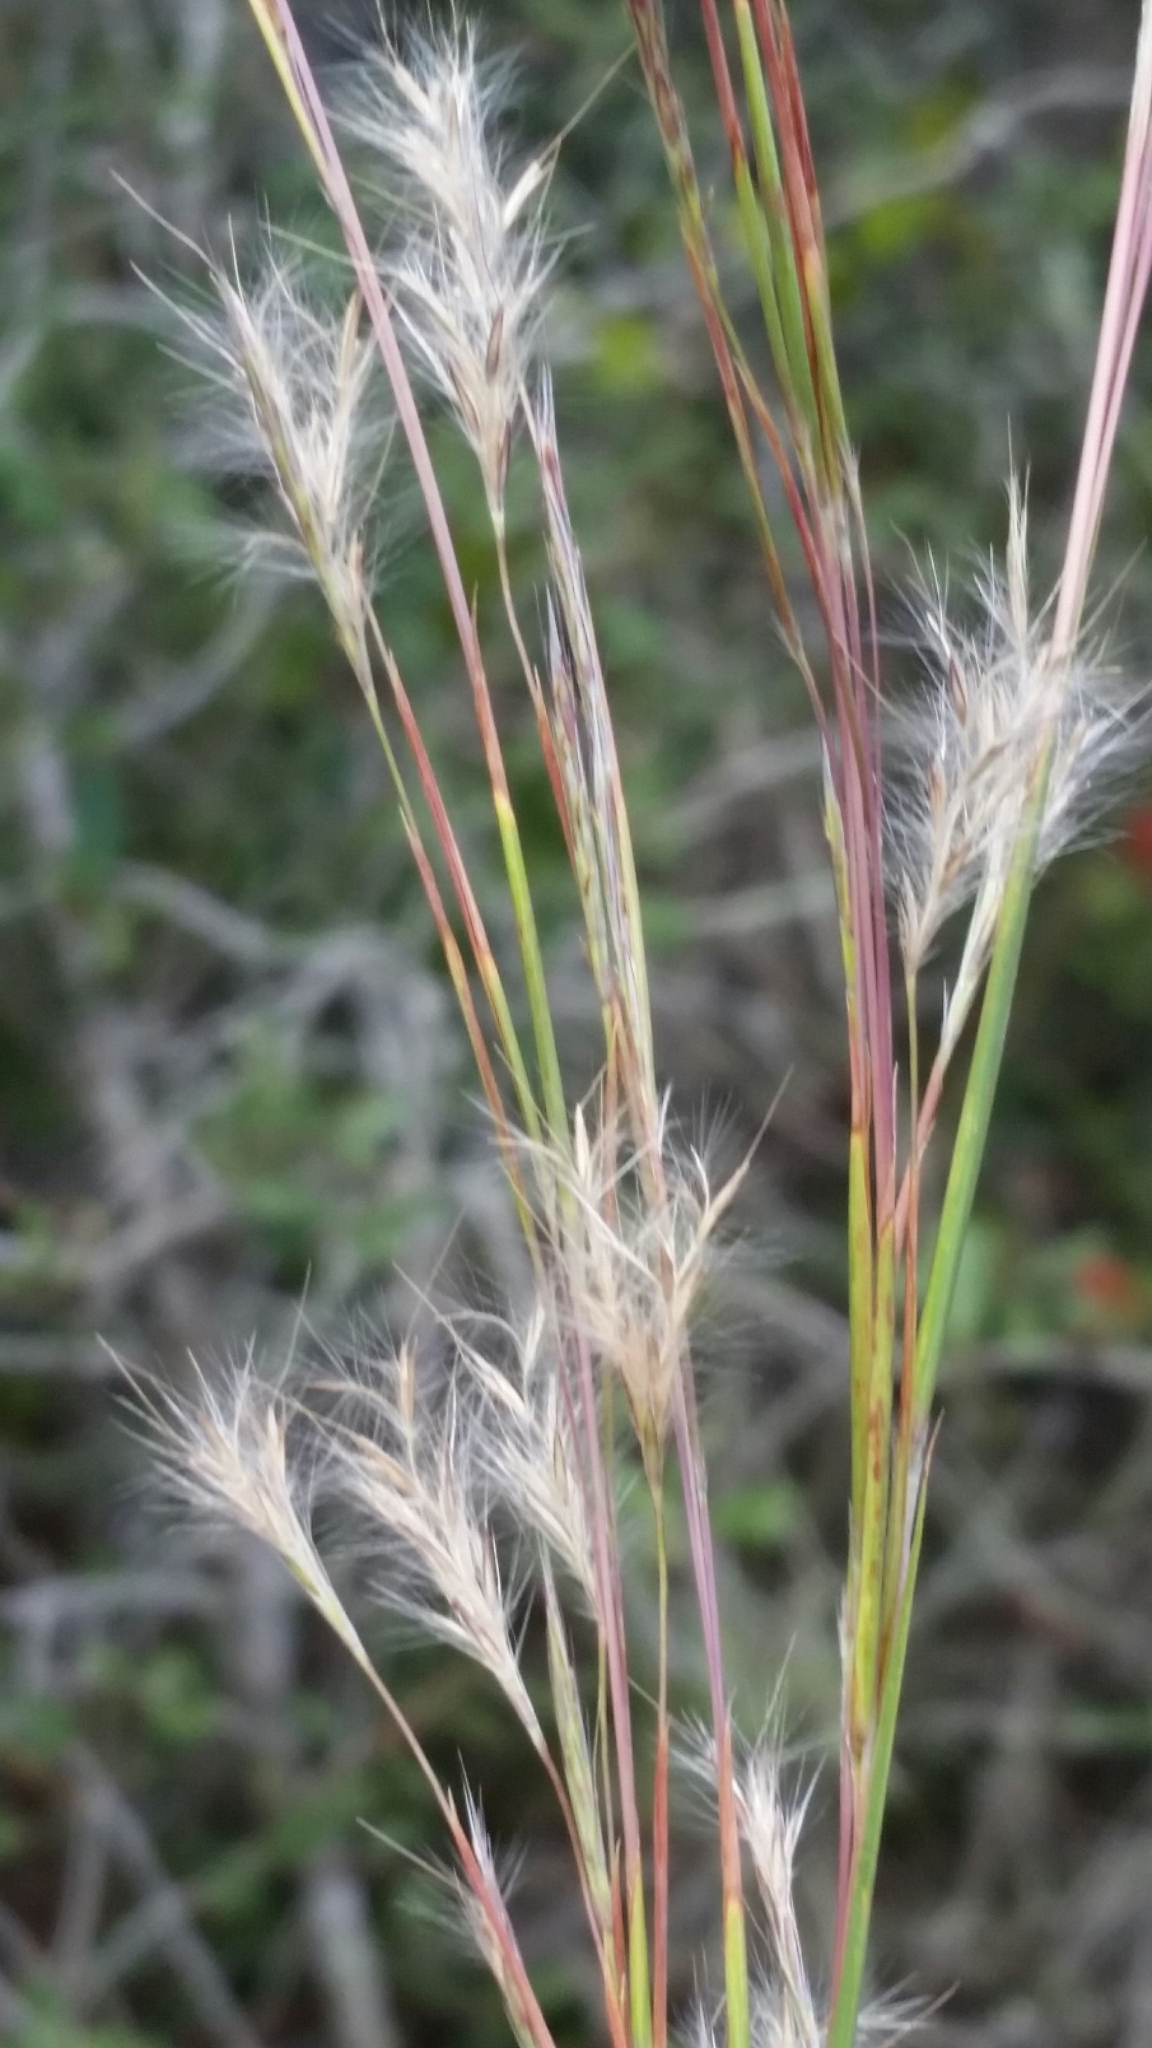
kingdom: Plantae
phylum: Tracheophyta
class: Liliopsida
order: Poales
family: Poaceae
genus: Andropogon
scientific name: Andropogon brachystachyus
